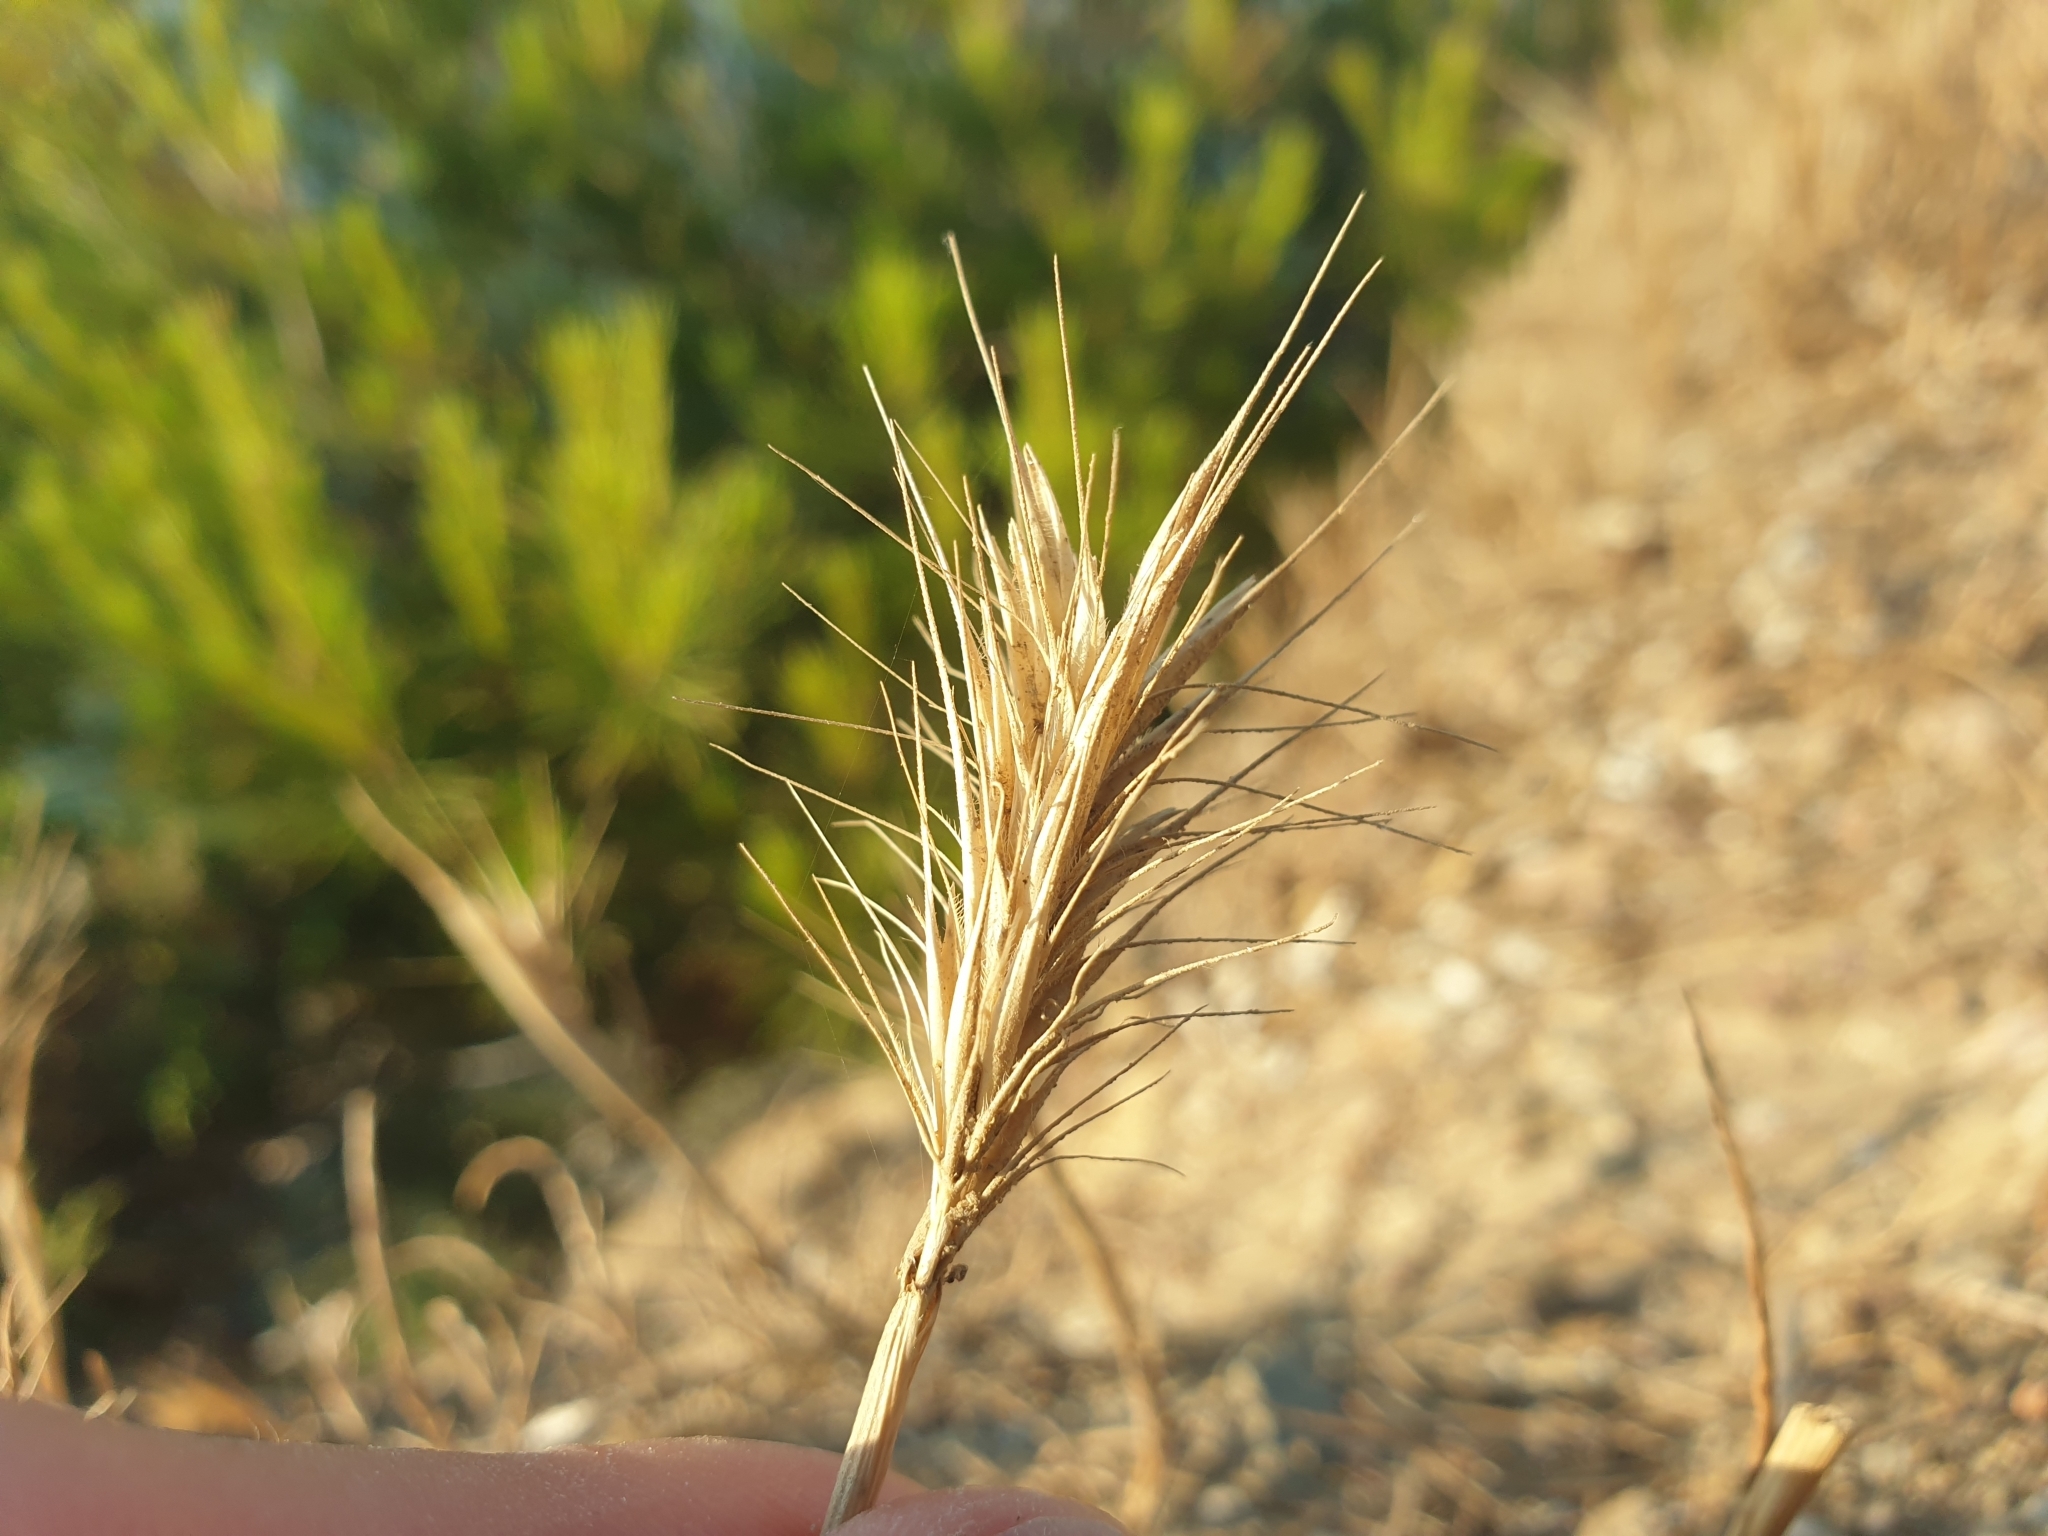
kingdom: Plantae
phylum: Tracheophyta
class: Liliopsida
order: Poales
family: Poaceae
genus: Hordeum
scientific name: Hordeum murinum
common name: Wall barley
